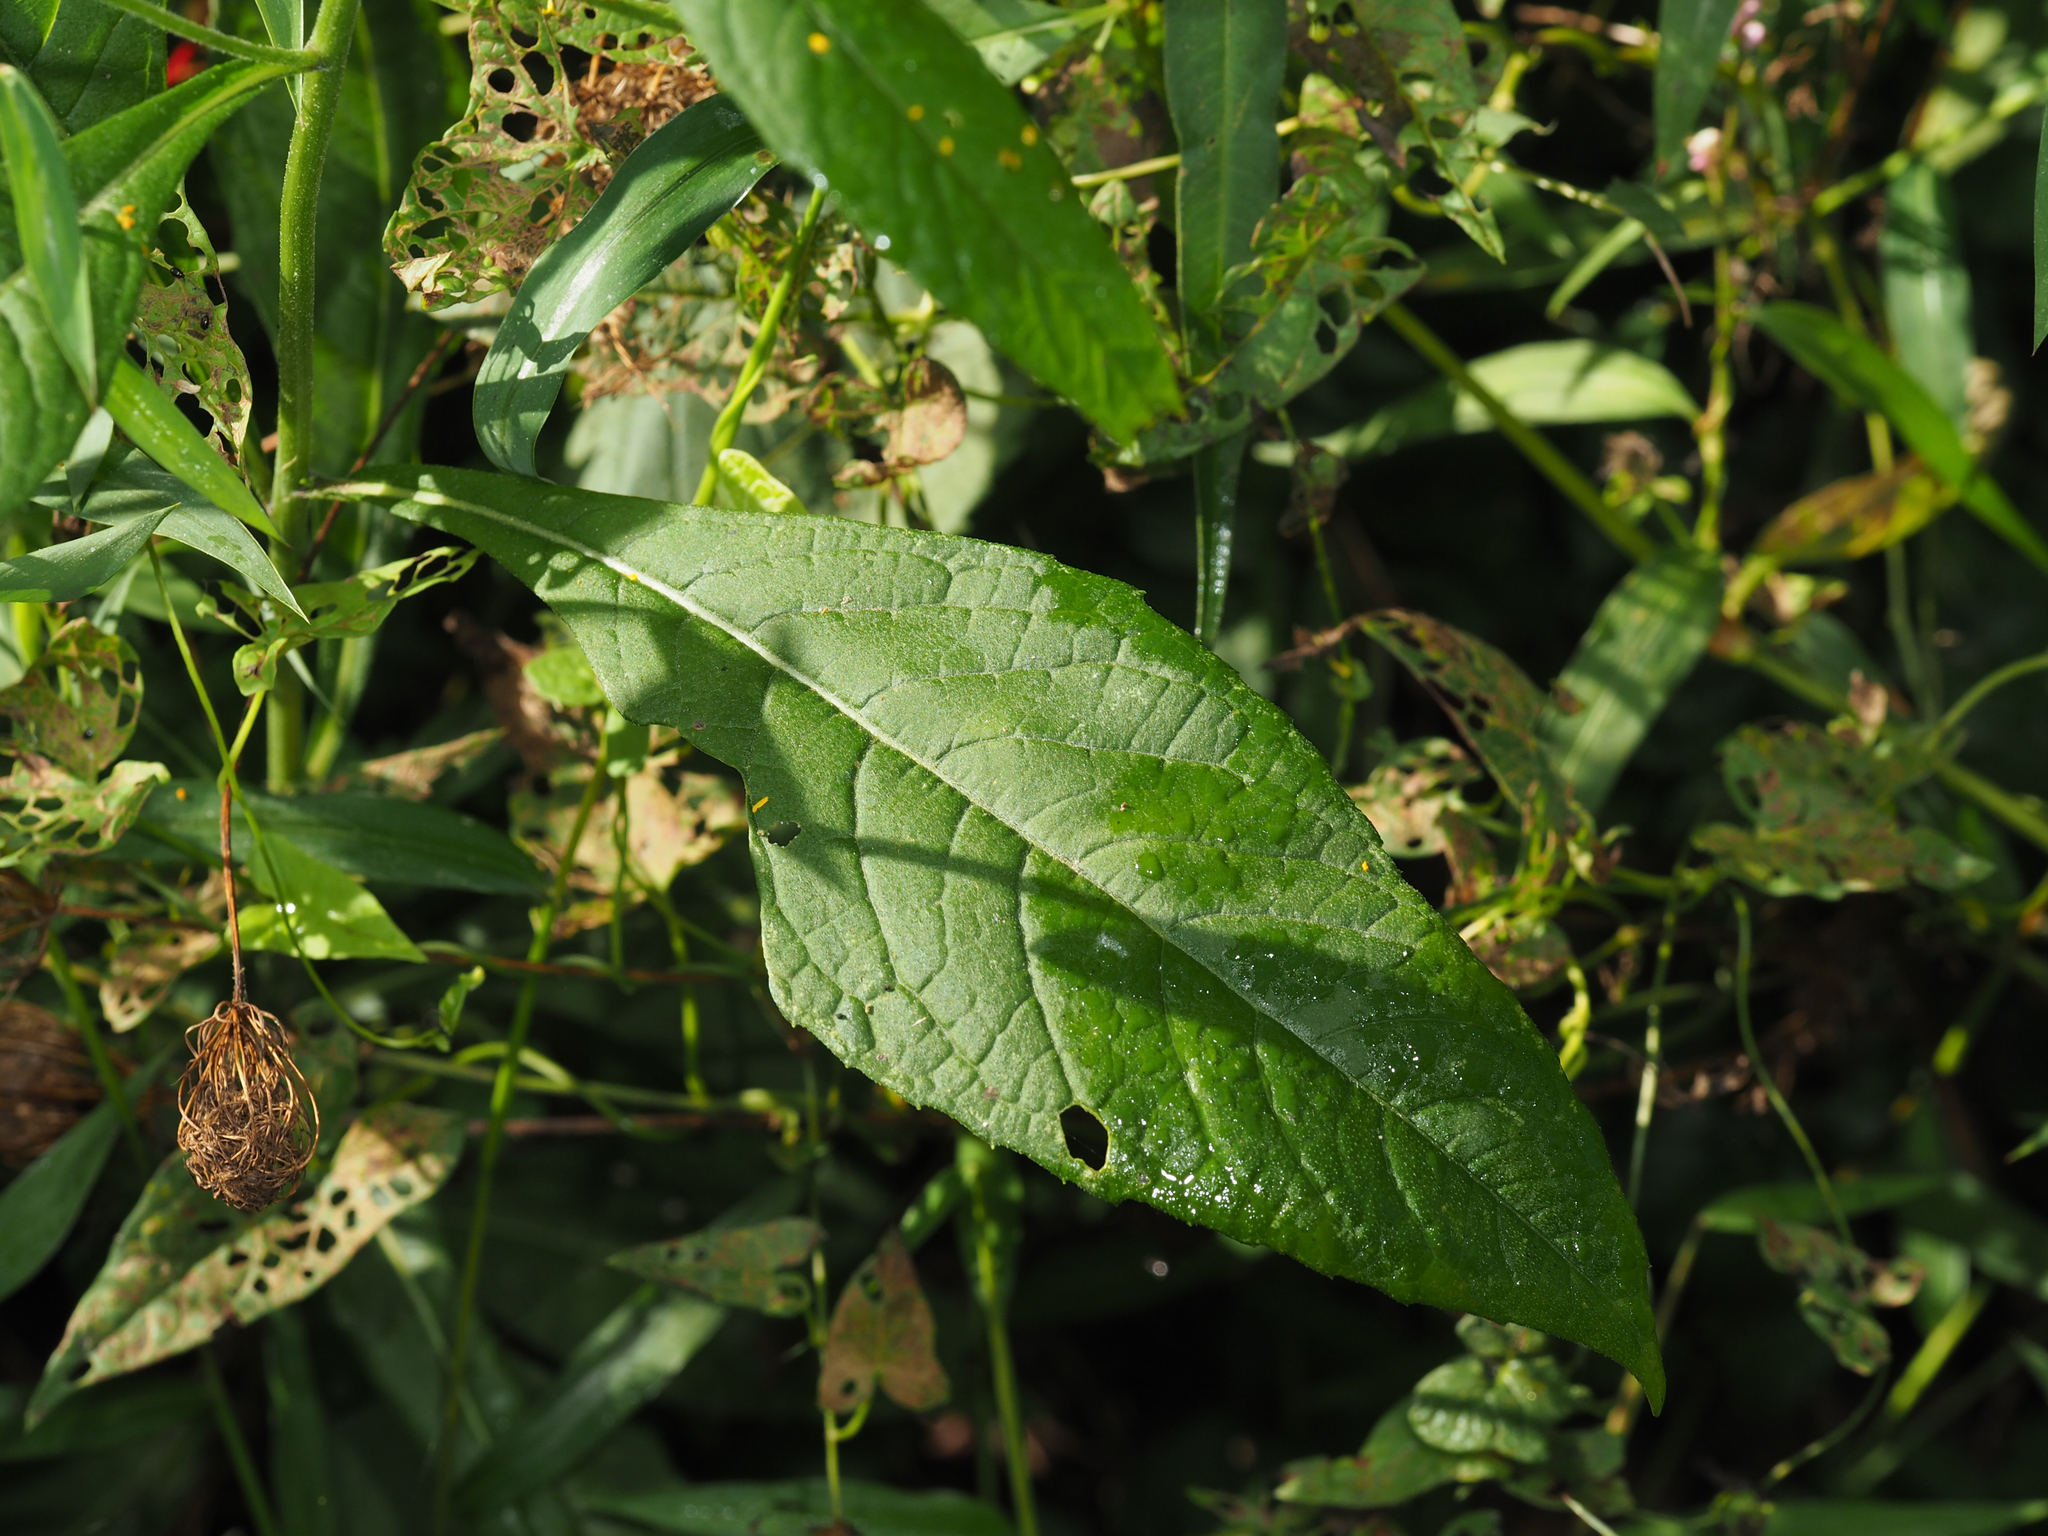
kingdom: Plantae
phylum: Tracheophyta
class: Magnoliopsida
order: Asterales
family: Asteraceae
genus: Verbesina
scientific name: Verbesina alternifolia
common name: Wingstem
